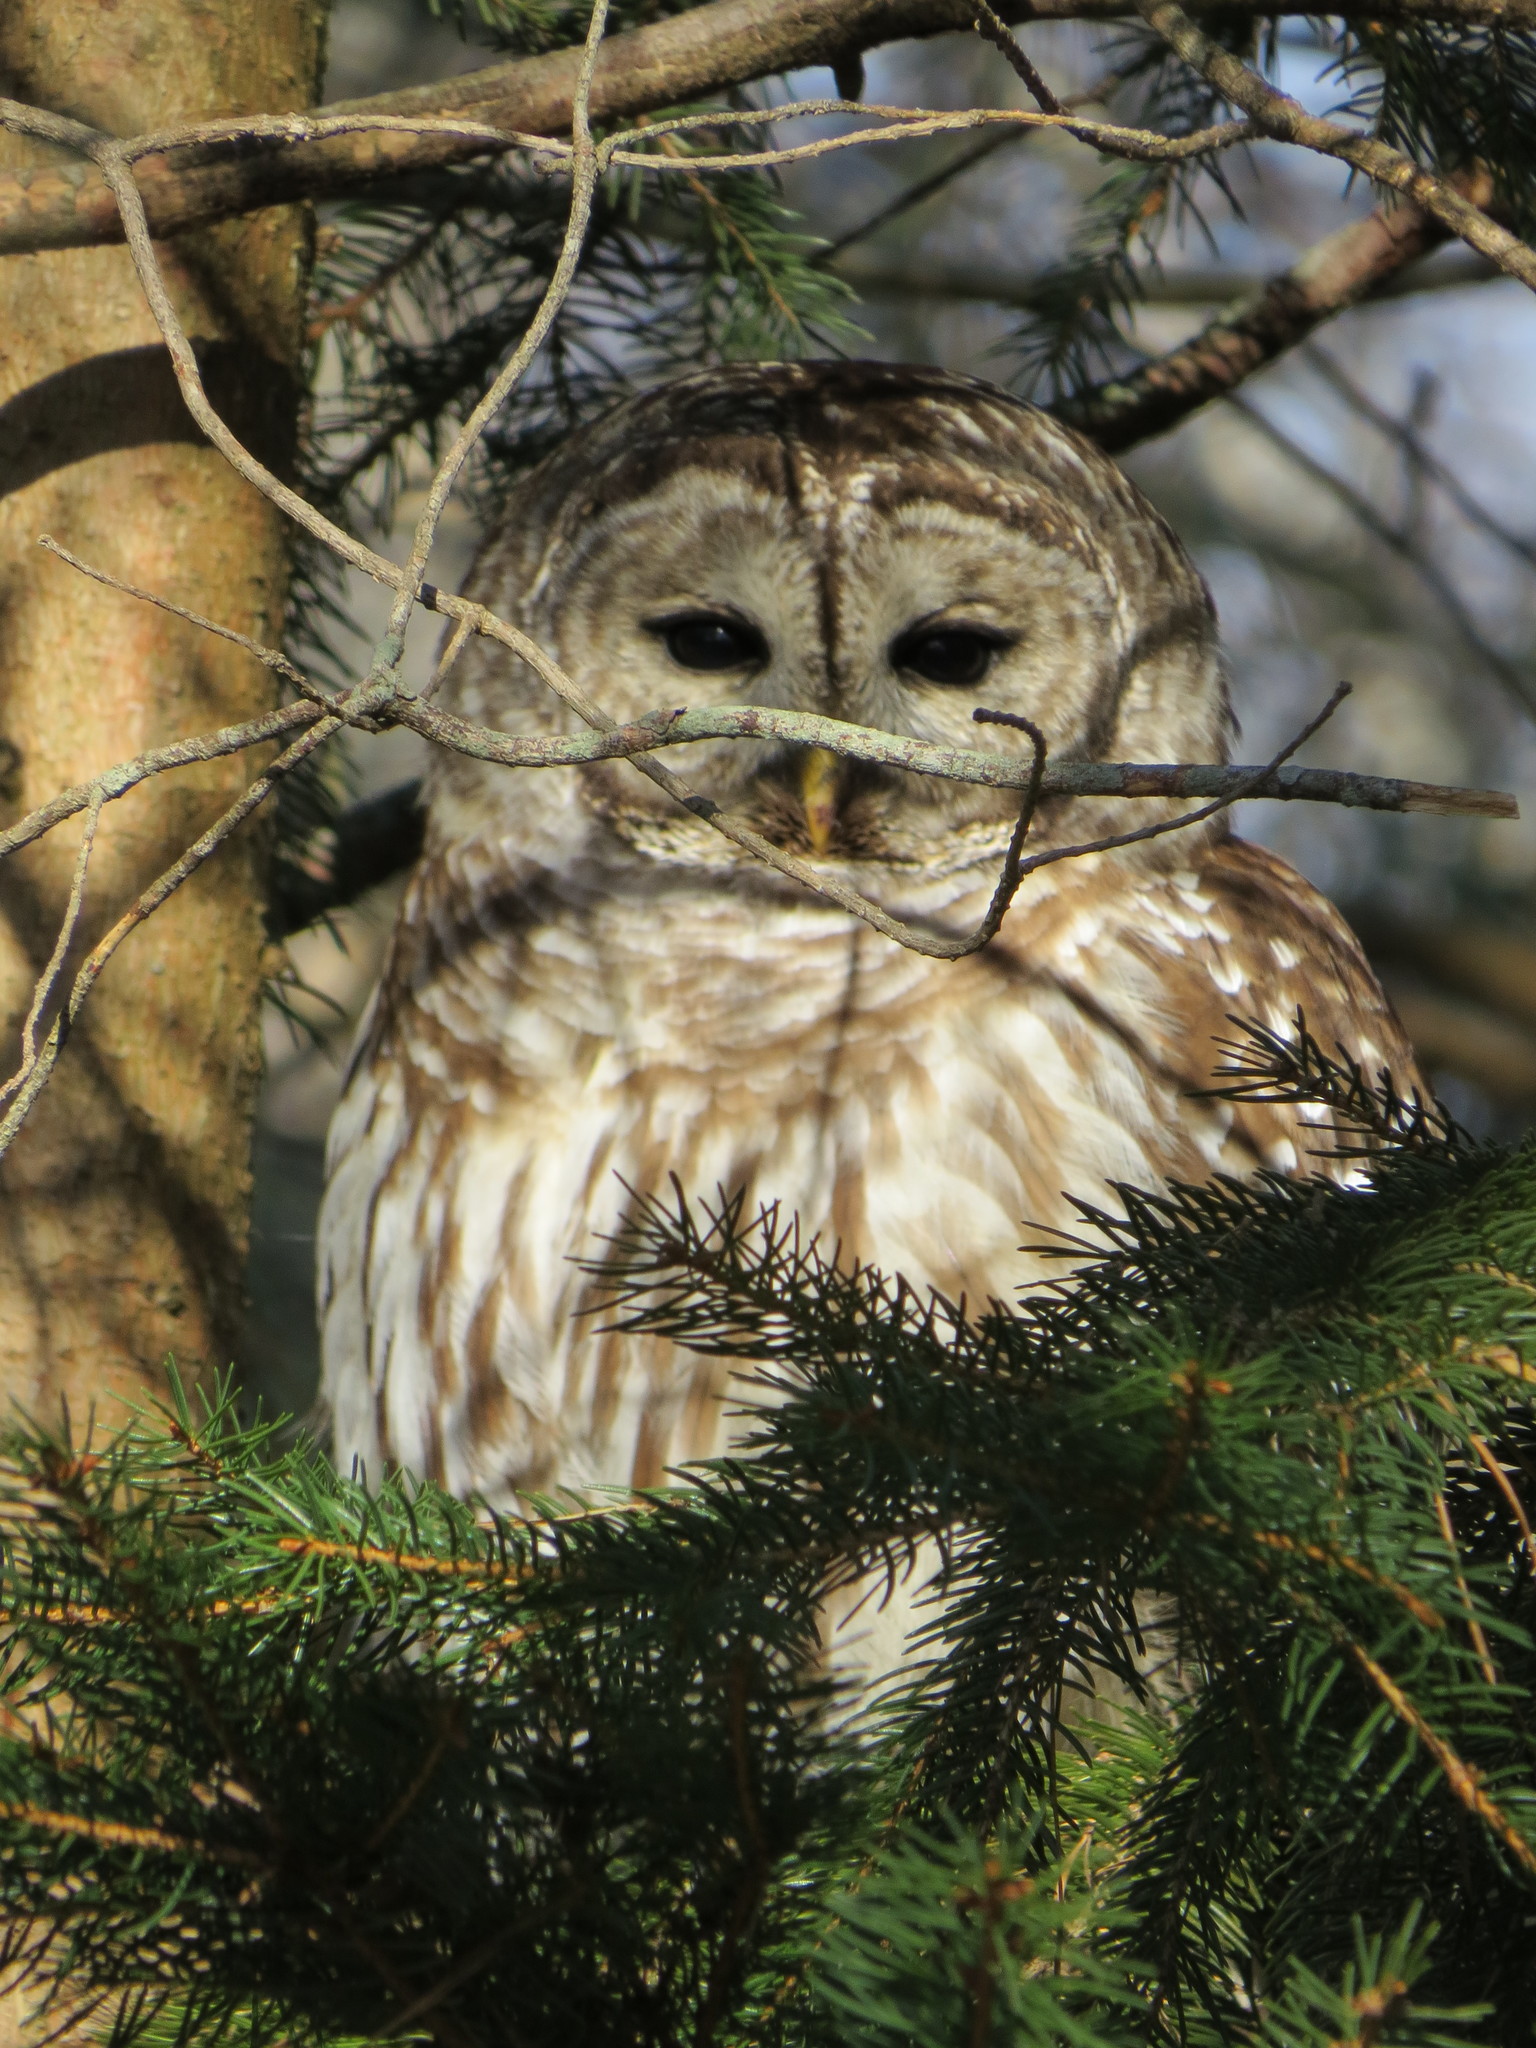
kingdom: Animalia
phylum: Chordata
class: Aves
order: Strigiformes
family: Strigidae
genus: Strix
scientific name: Strix varia
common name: Barred owl
